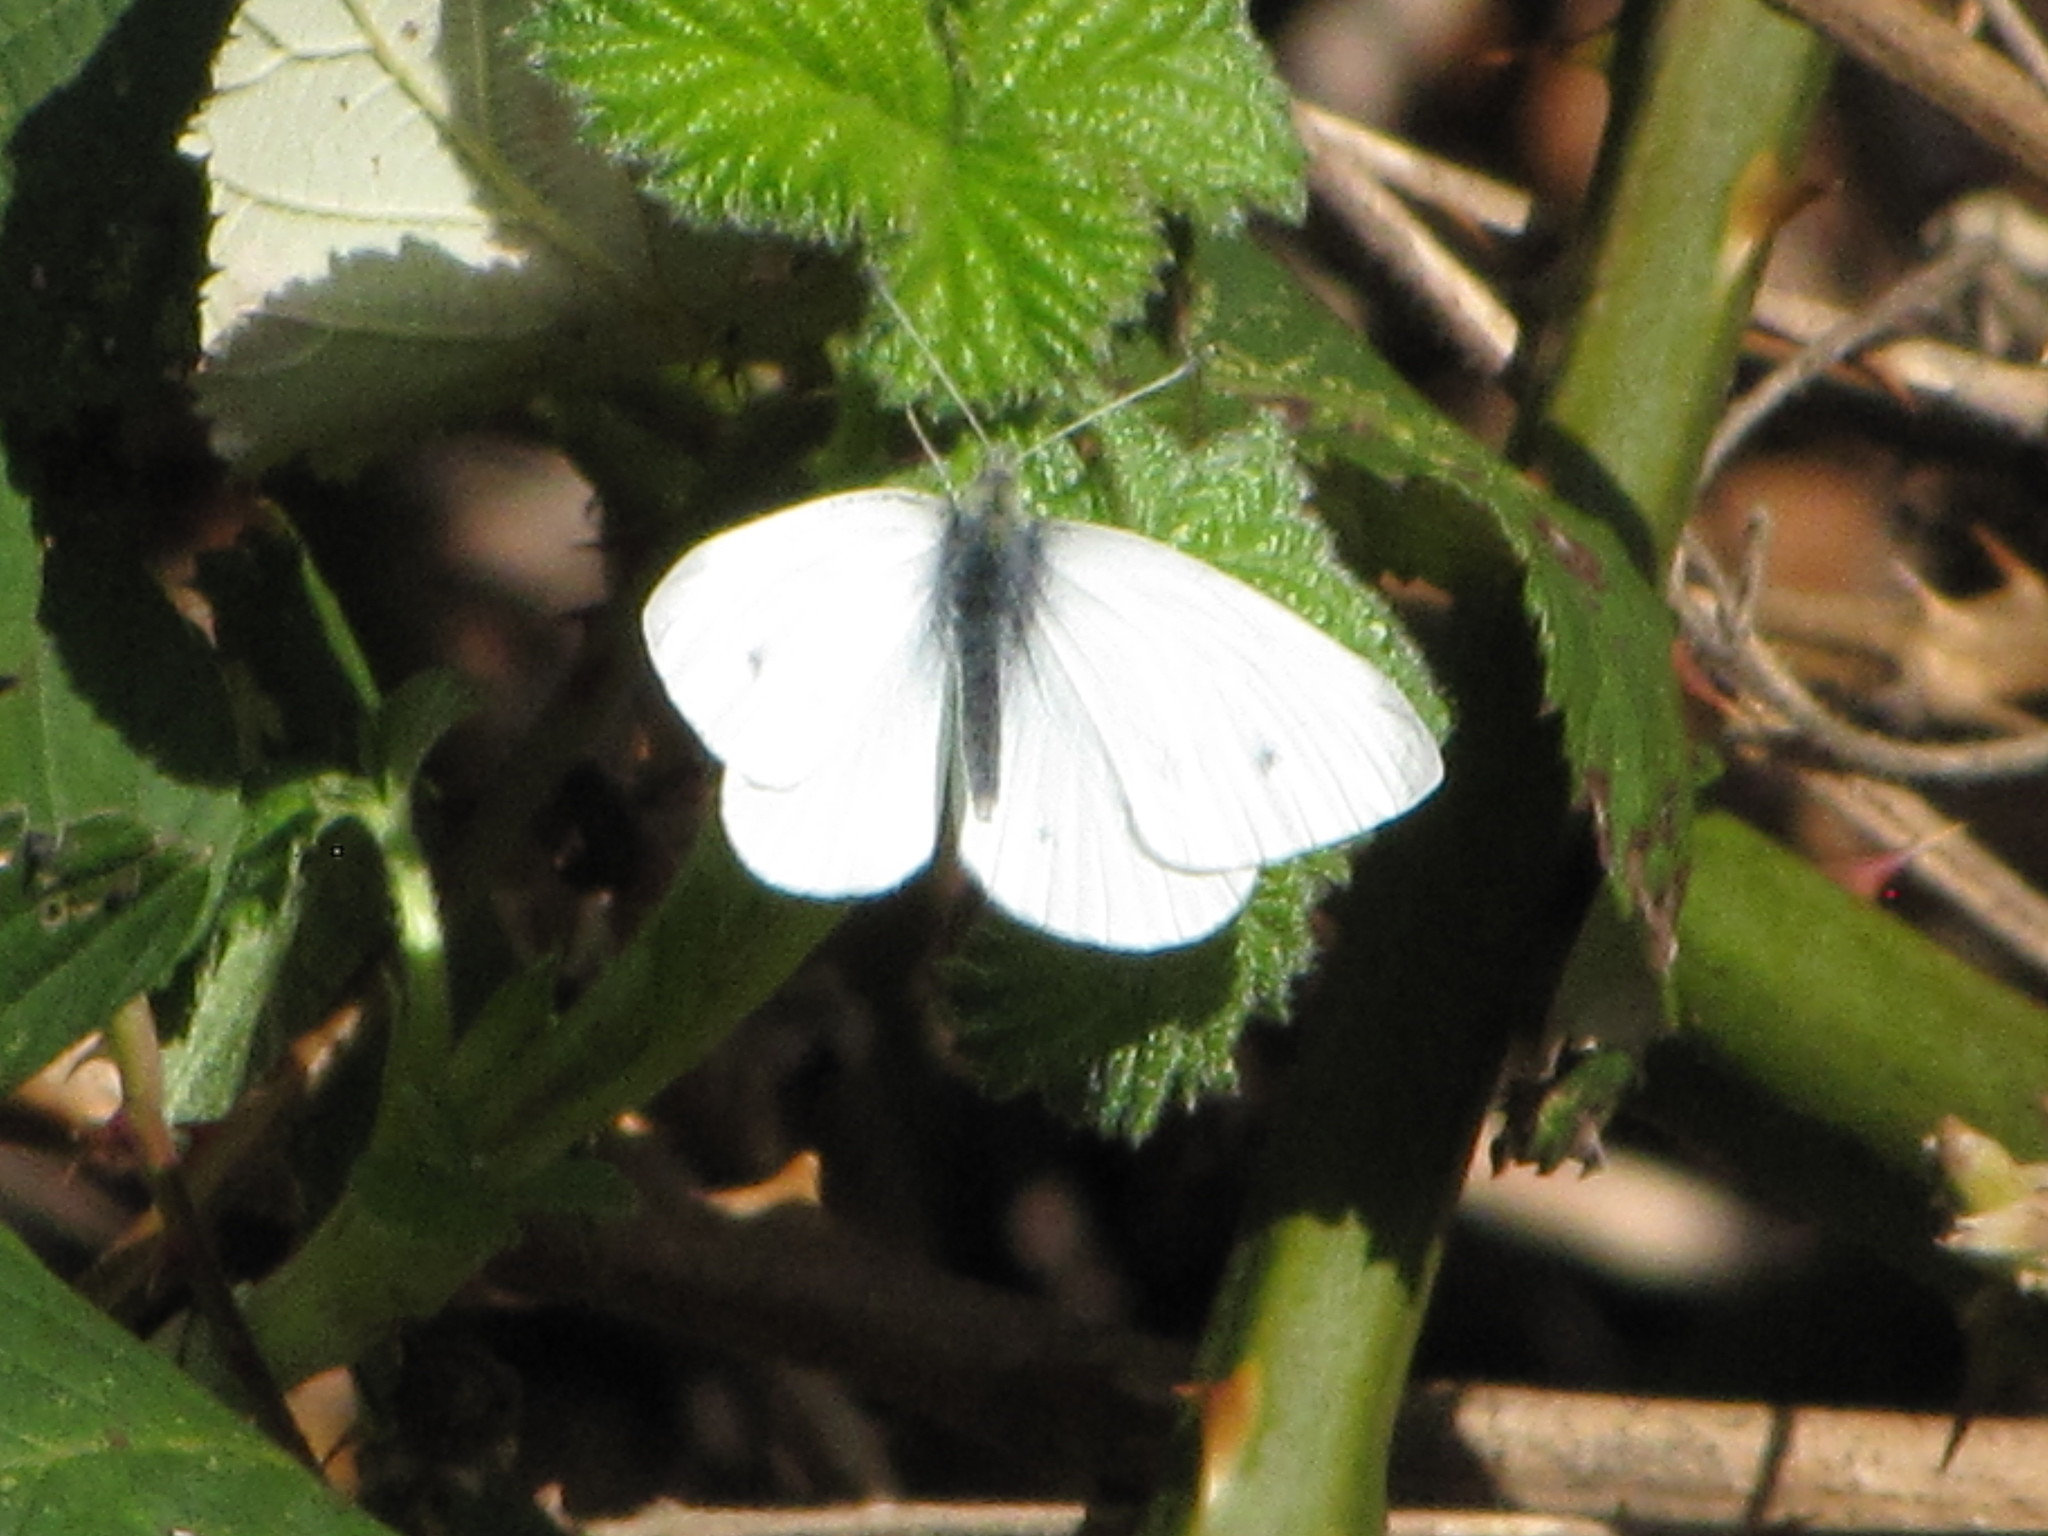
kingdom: Animalia
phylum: Arthropoda
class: Insecta
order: Lepidoptera
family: Pieridae
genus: Pieris
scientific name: Pieris rapae
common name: Small white
